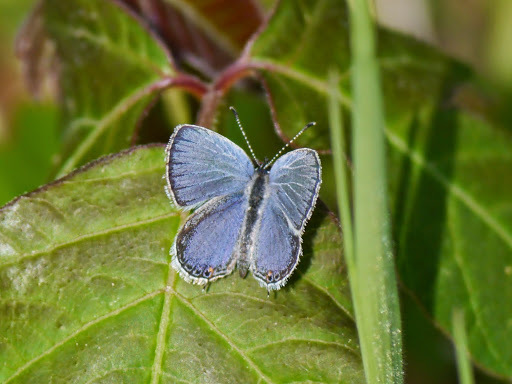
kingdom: Animalia
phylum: Arthropoda
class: Insecta
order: Lepidoptera
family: Lycaenidae
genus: Elkalyce
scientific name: Elkalyce comyntas
